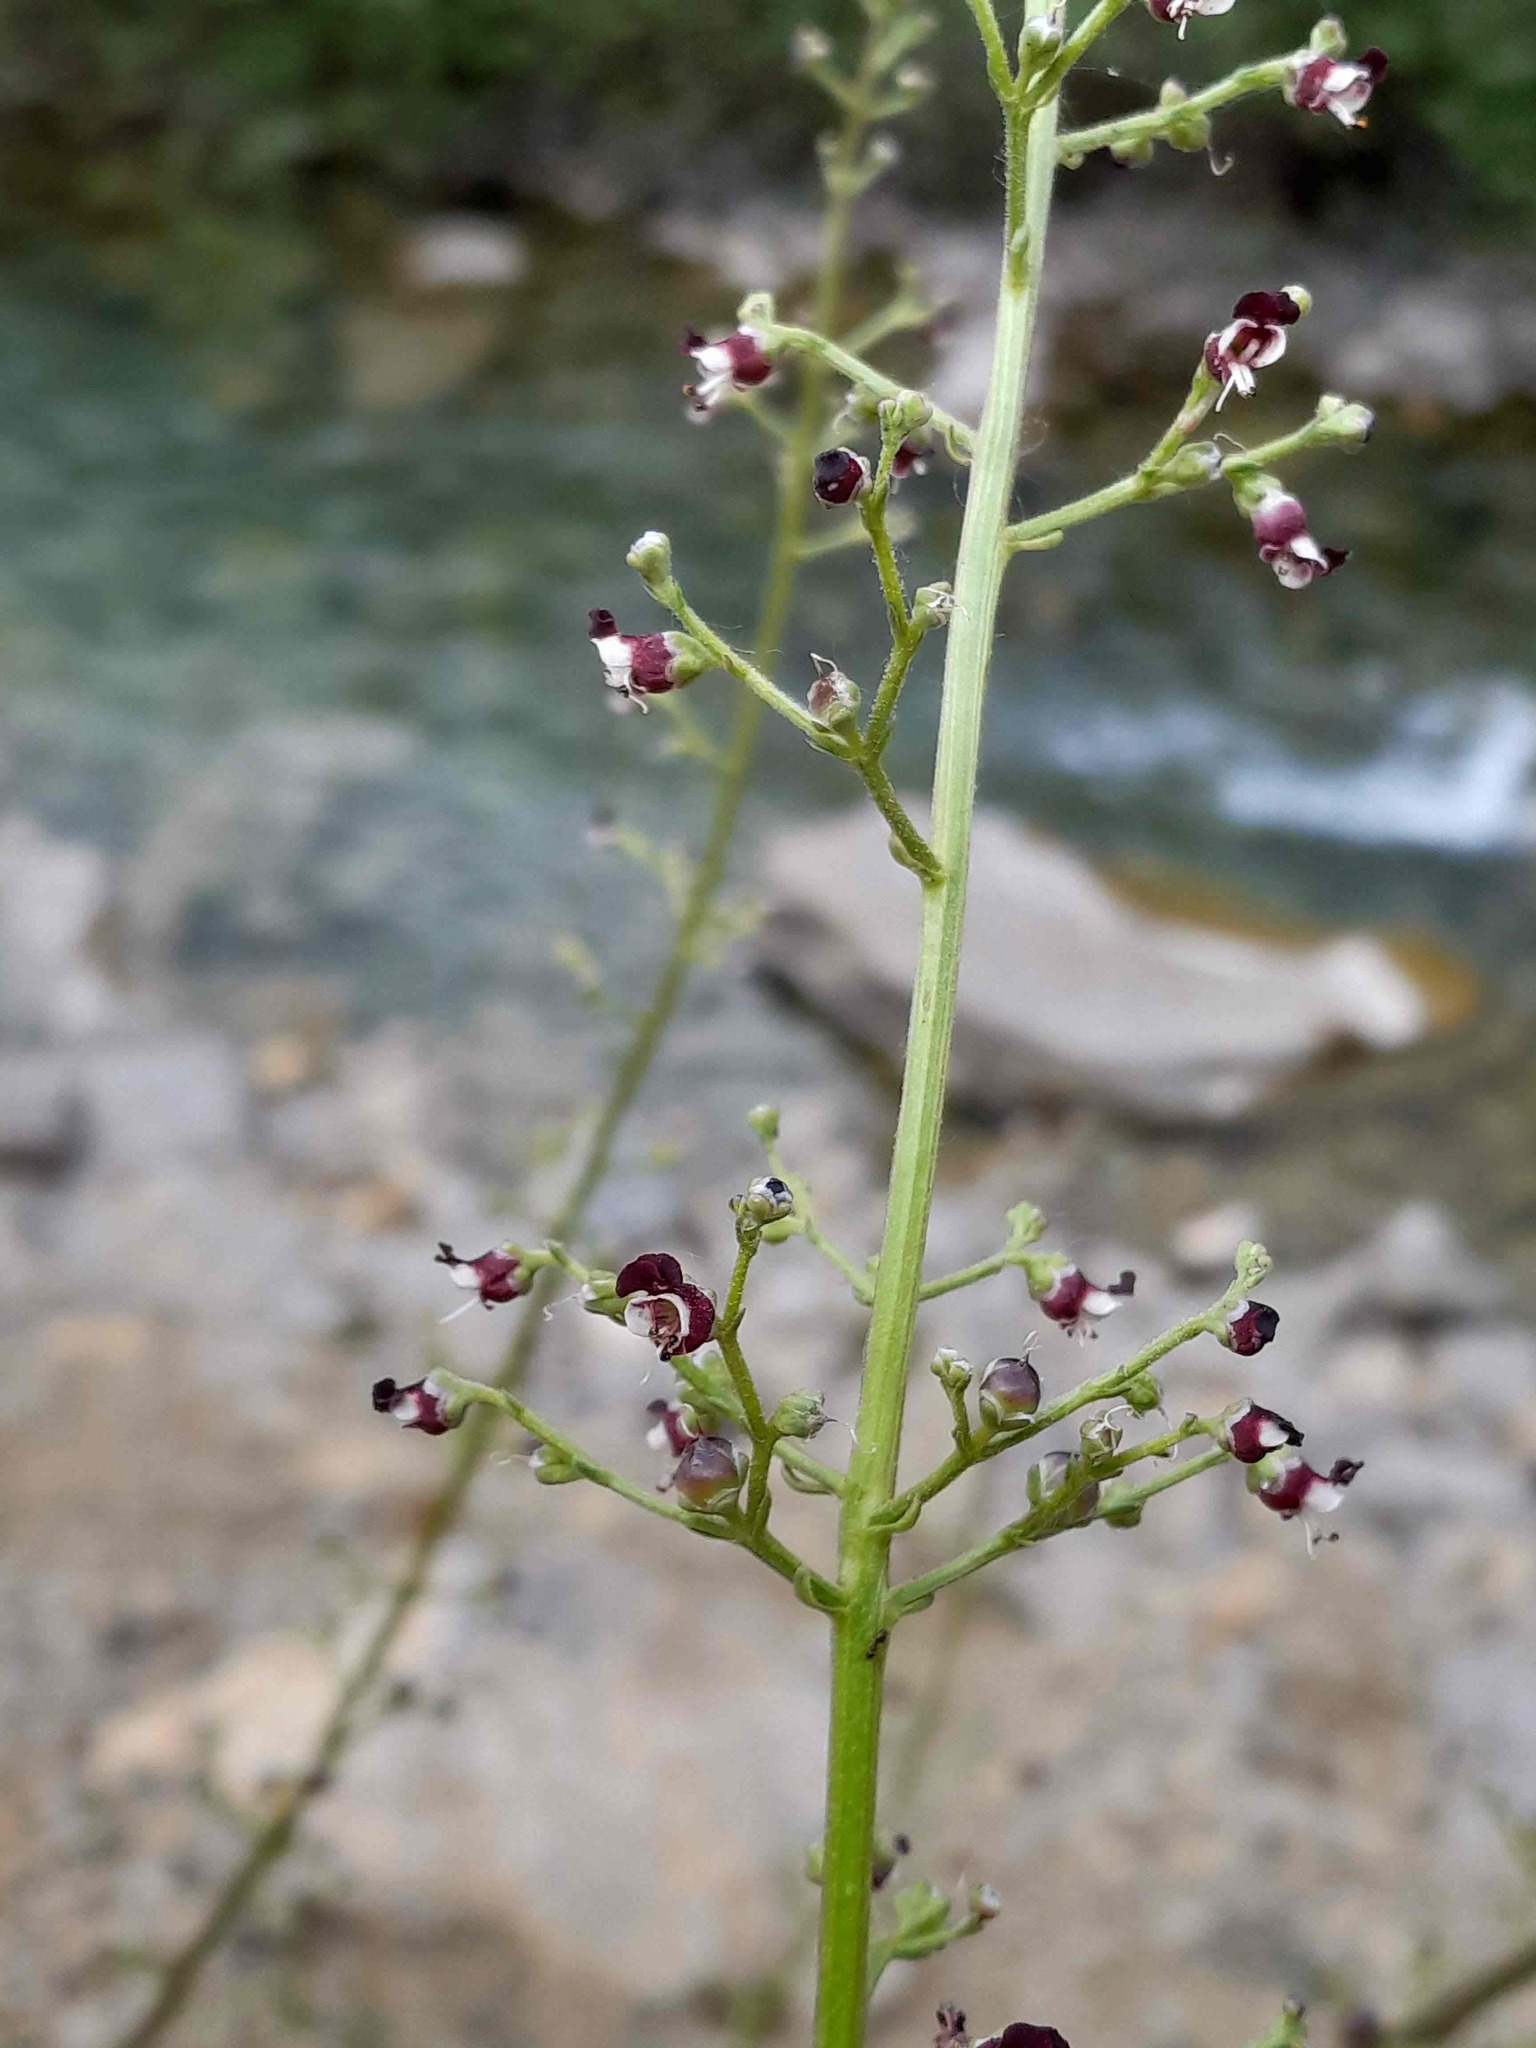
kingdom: Plantae
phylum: Tracheophyta
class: Magnoliopsida
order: Lamiales
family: Scrophulariaceae
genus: Scrophularia
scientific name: Scrophularia canina
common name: French figwort
